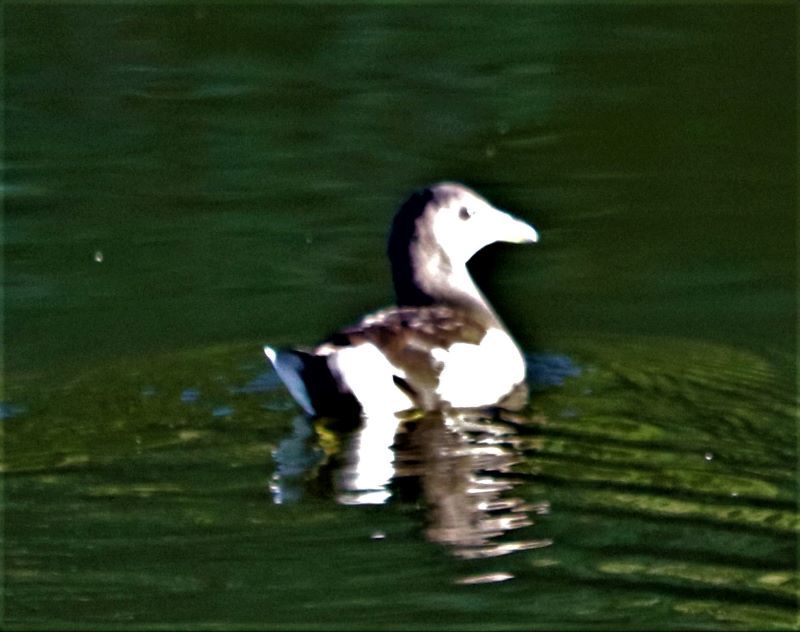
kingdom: Animalia
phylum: Chordata
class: Aves
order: Gruiformes
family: Rallidae
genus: Gallinula
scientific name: Gallinula chloropus
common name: Common moorhen
